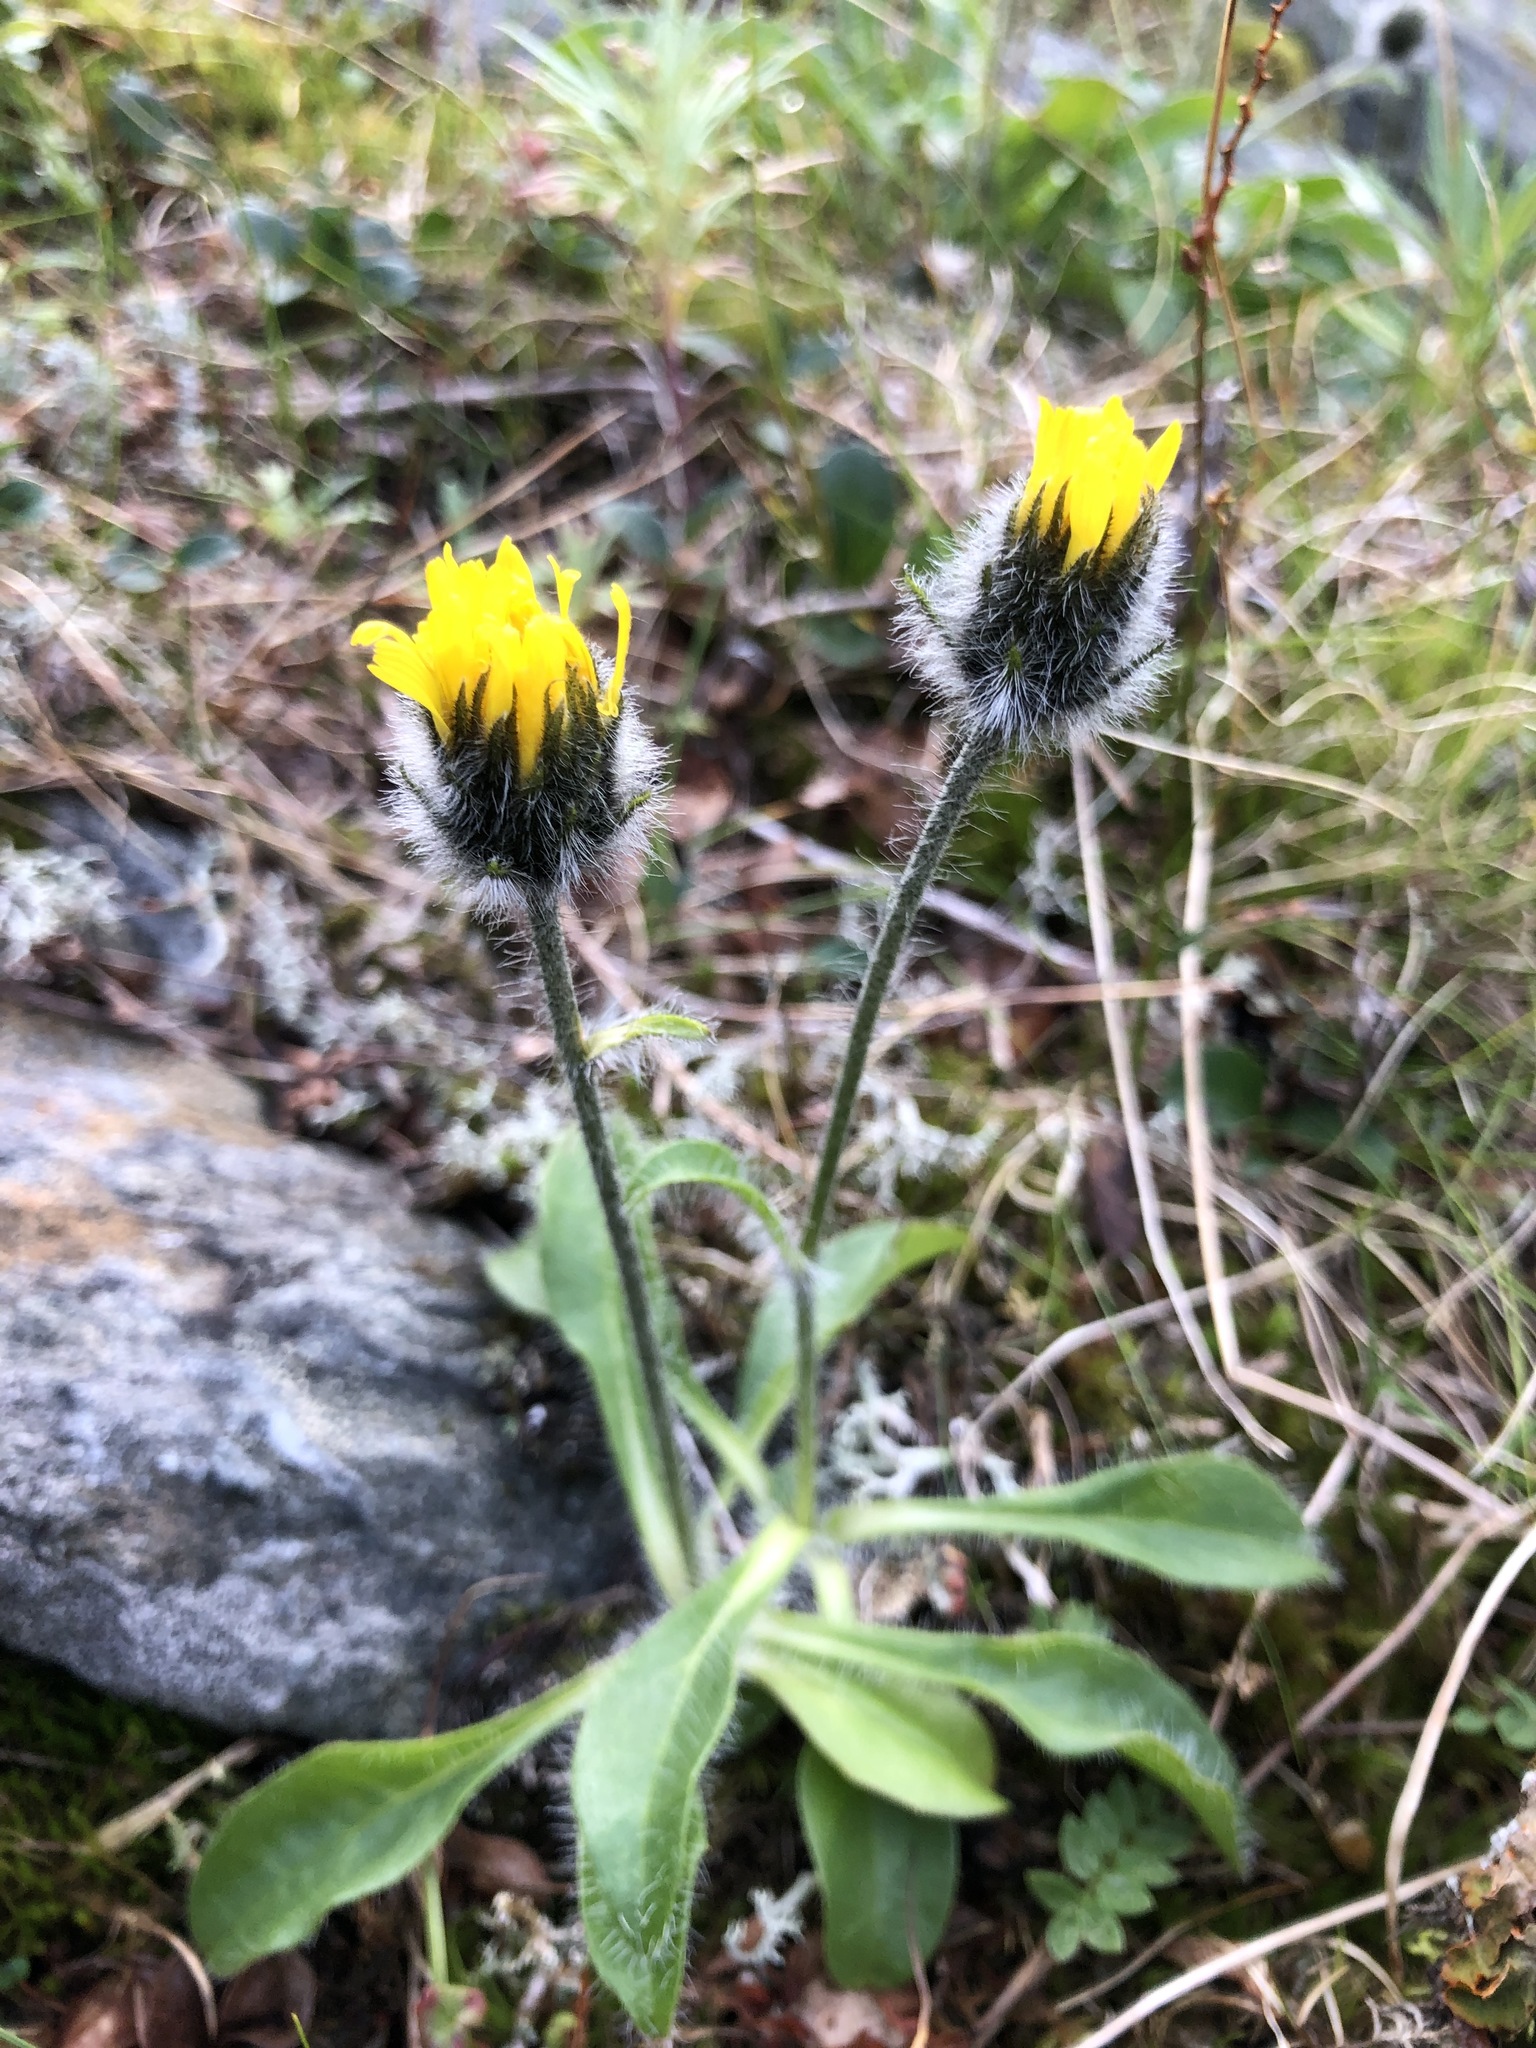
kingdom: Plantae
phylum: Tracheophyta
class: Magnoliopsida
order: Asterales
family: Asteraceae
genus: Hieracium
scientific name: Hieracium alpinum
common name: Alpine hawkweed
